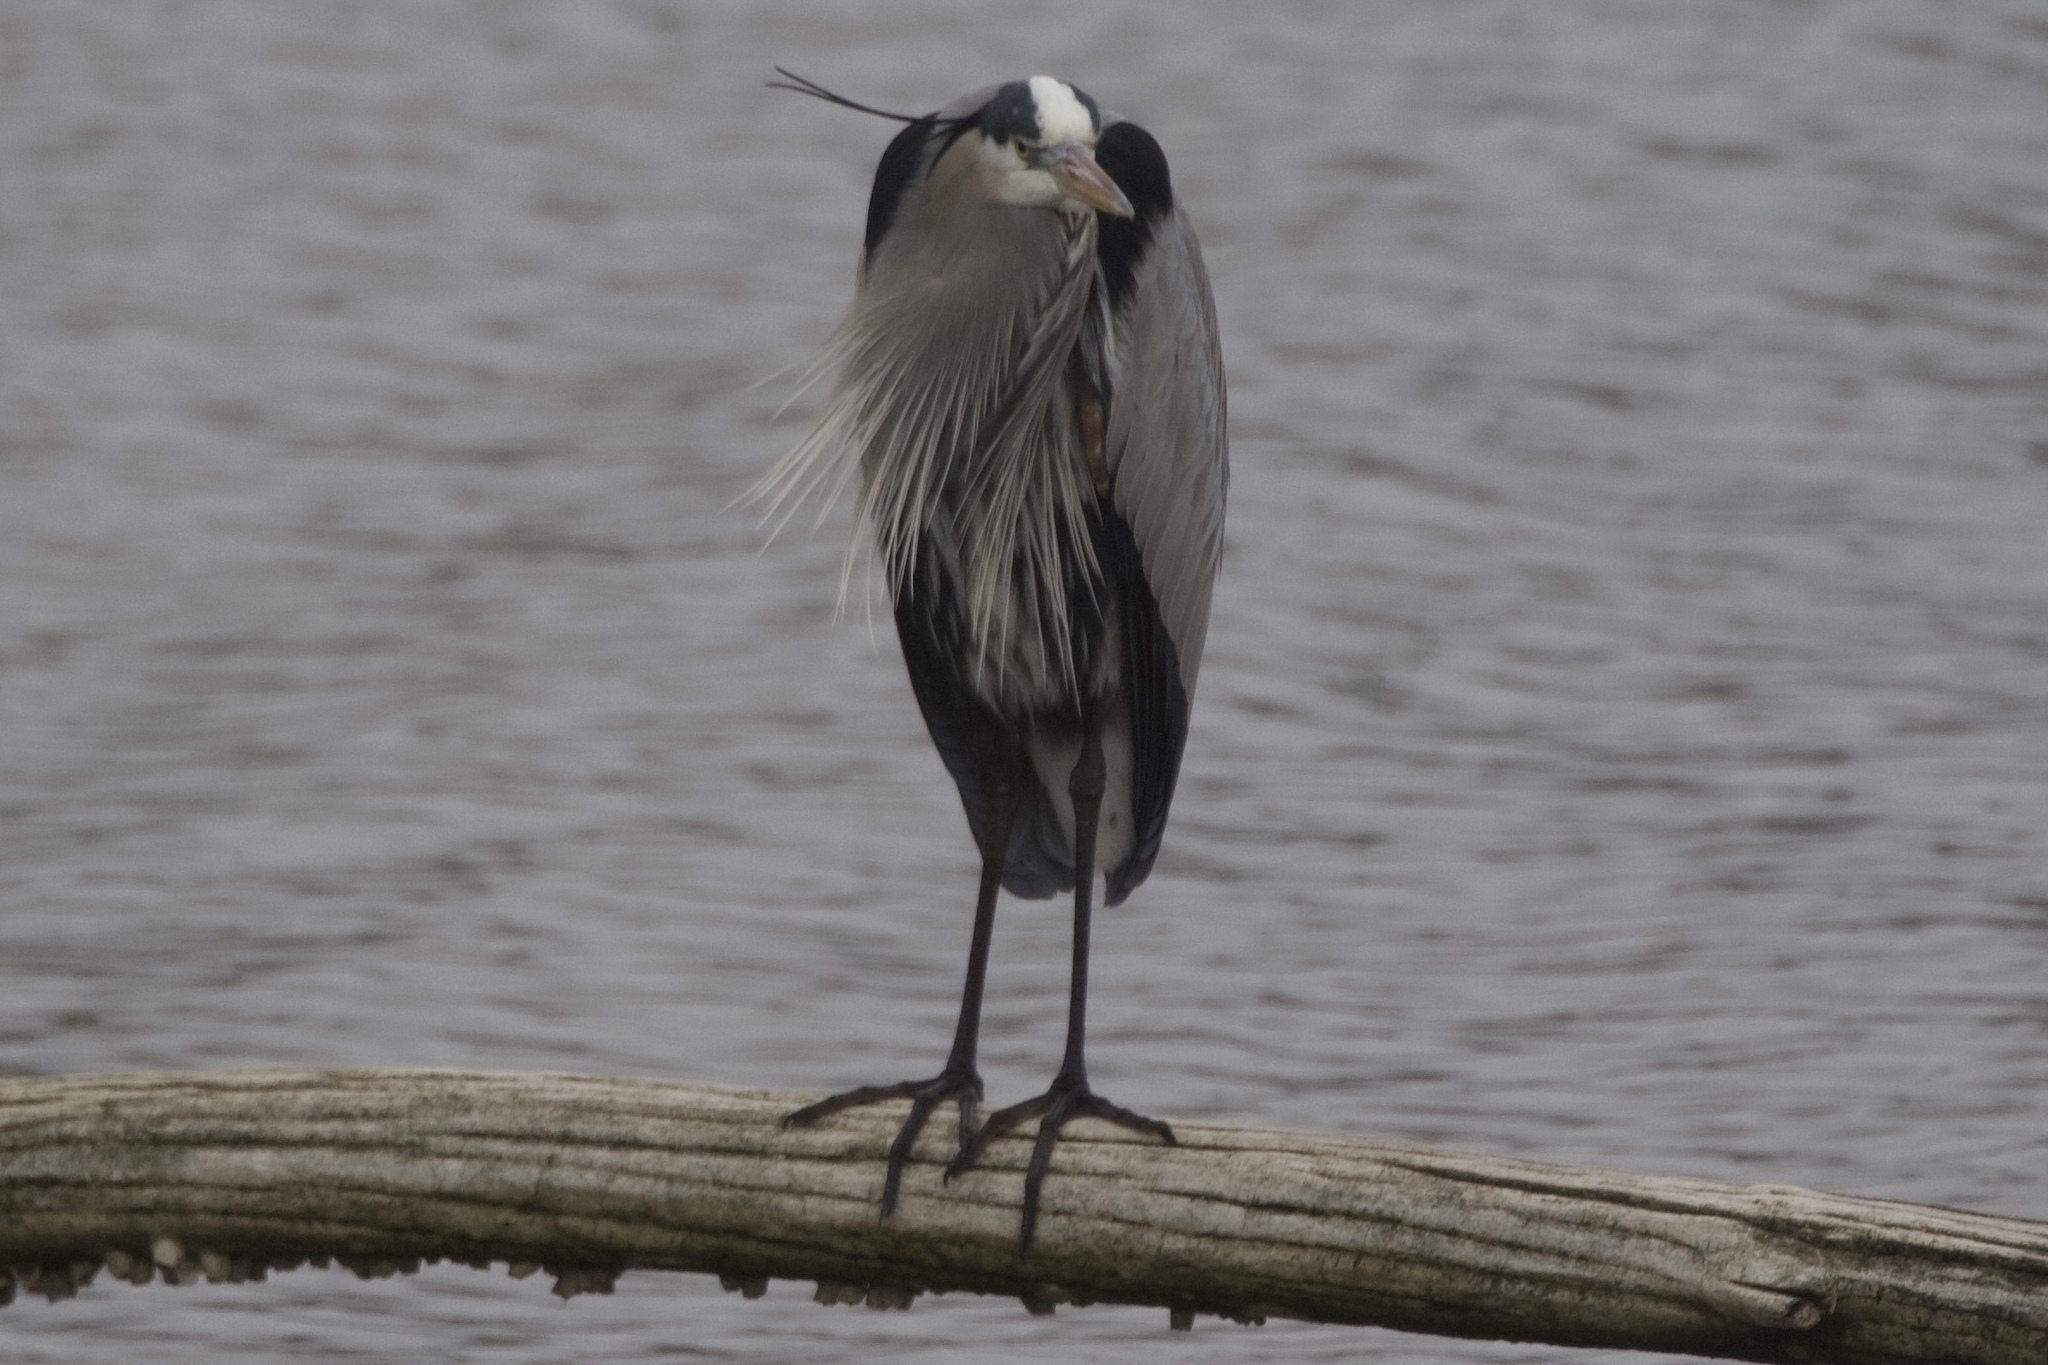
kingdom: Animalia
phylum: Chordata
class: Aves
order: Pelecaniformes
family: Ardeidae
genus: Ardea
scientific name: Ardea herodias
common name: Great blue heron
